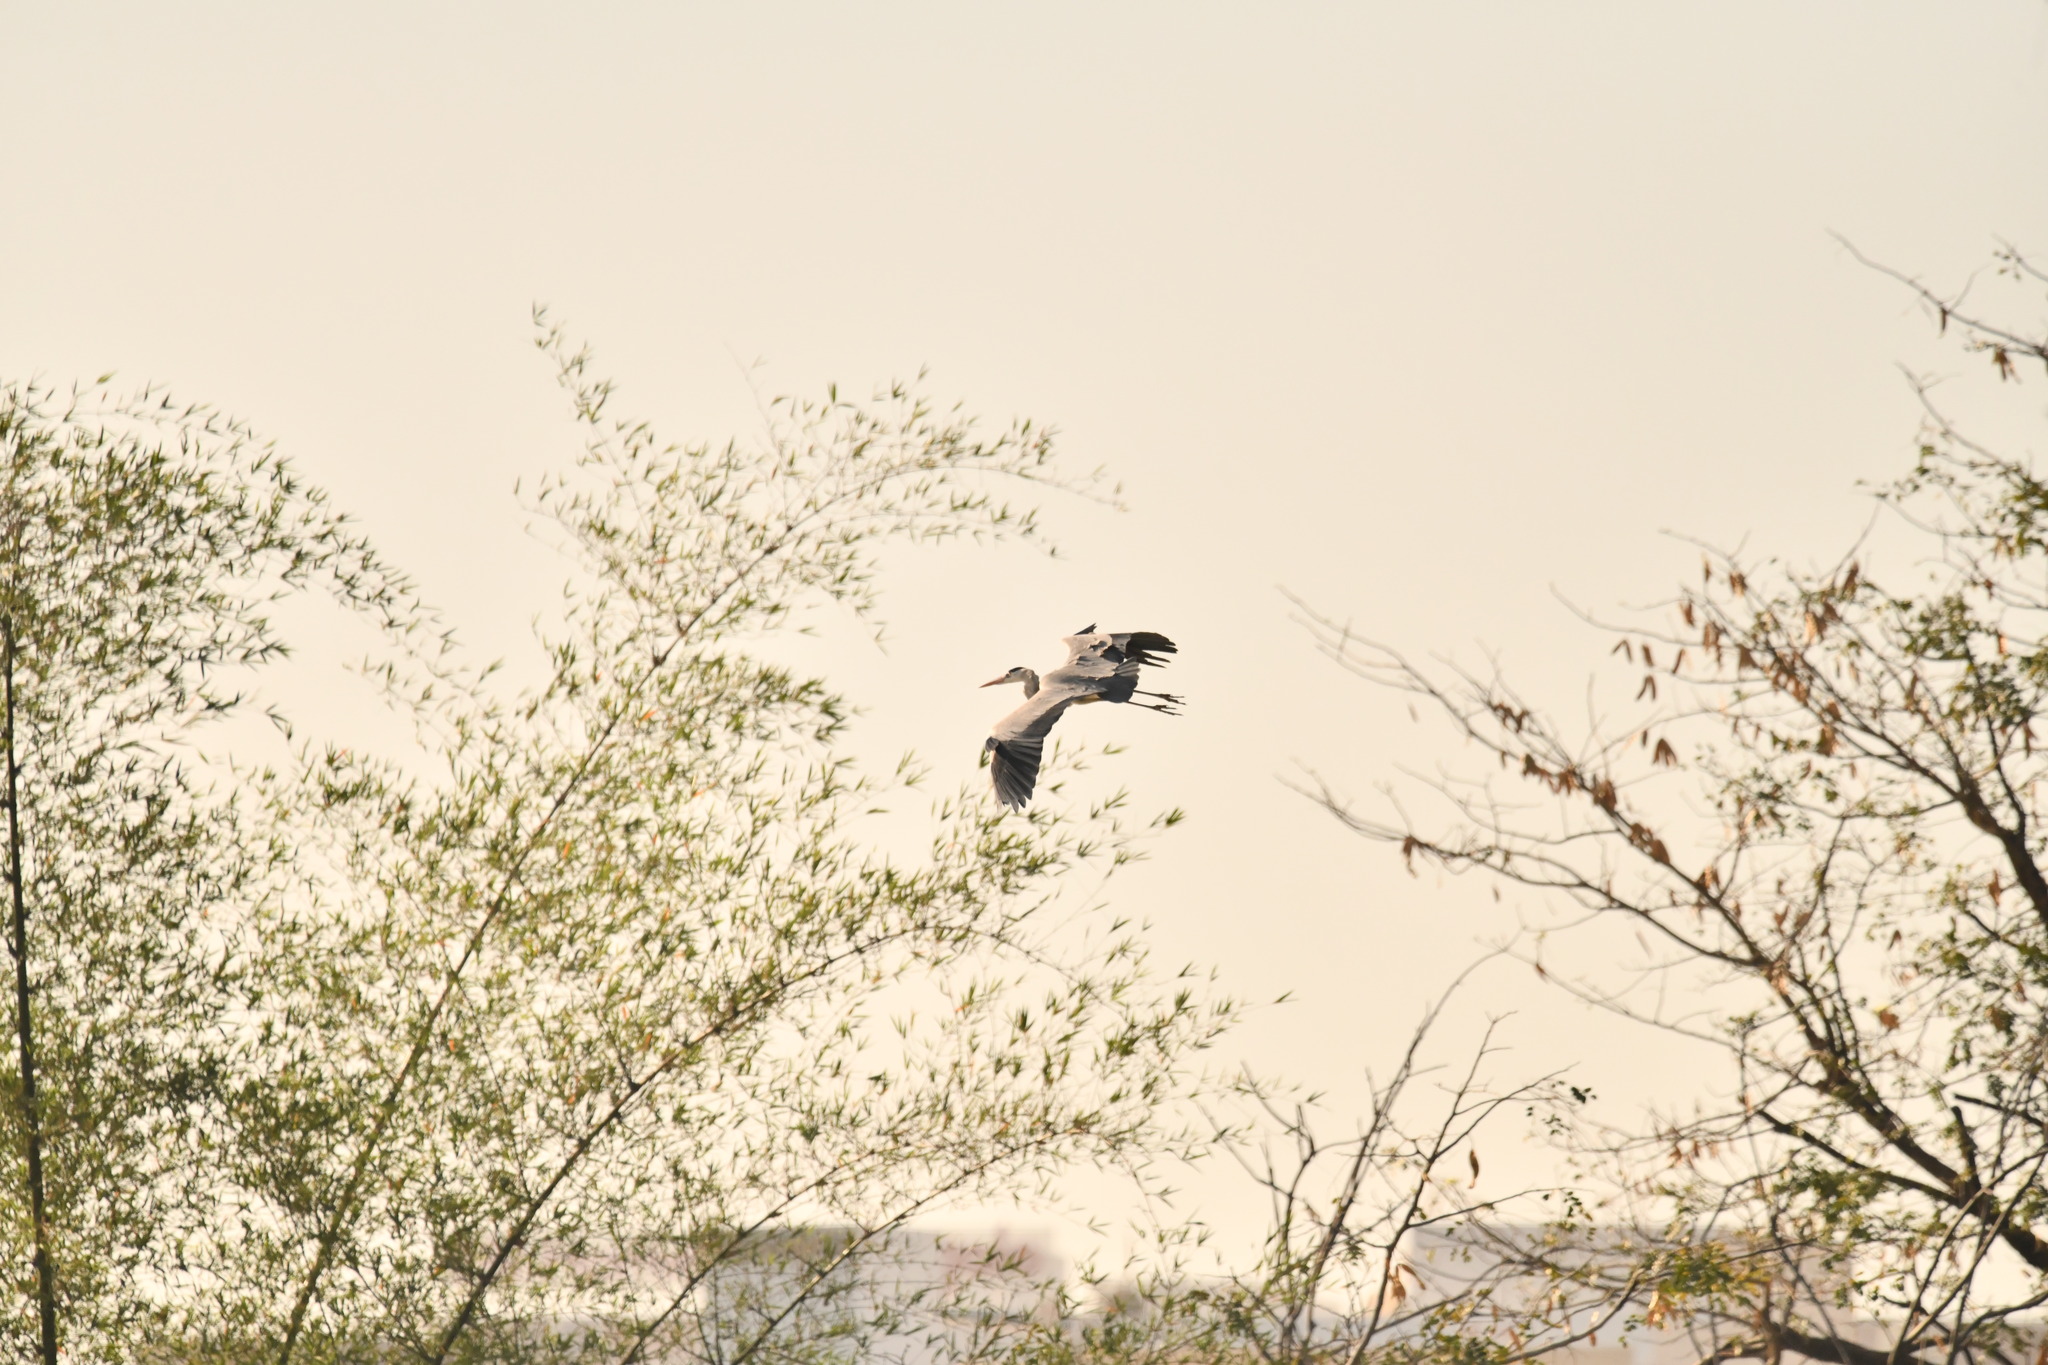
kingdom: Animalia
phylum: Chordata
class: Aves
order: Pelecaniformes
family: Ardeidae
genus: Ardea
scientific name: Ardea cinerea
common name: Grey heron
